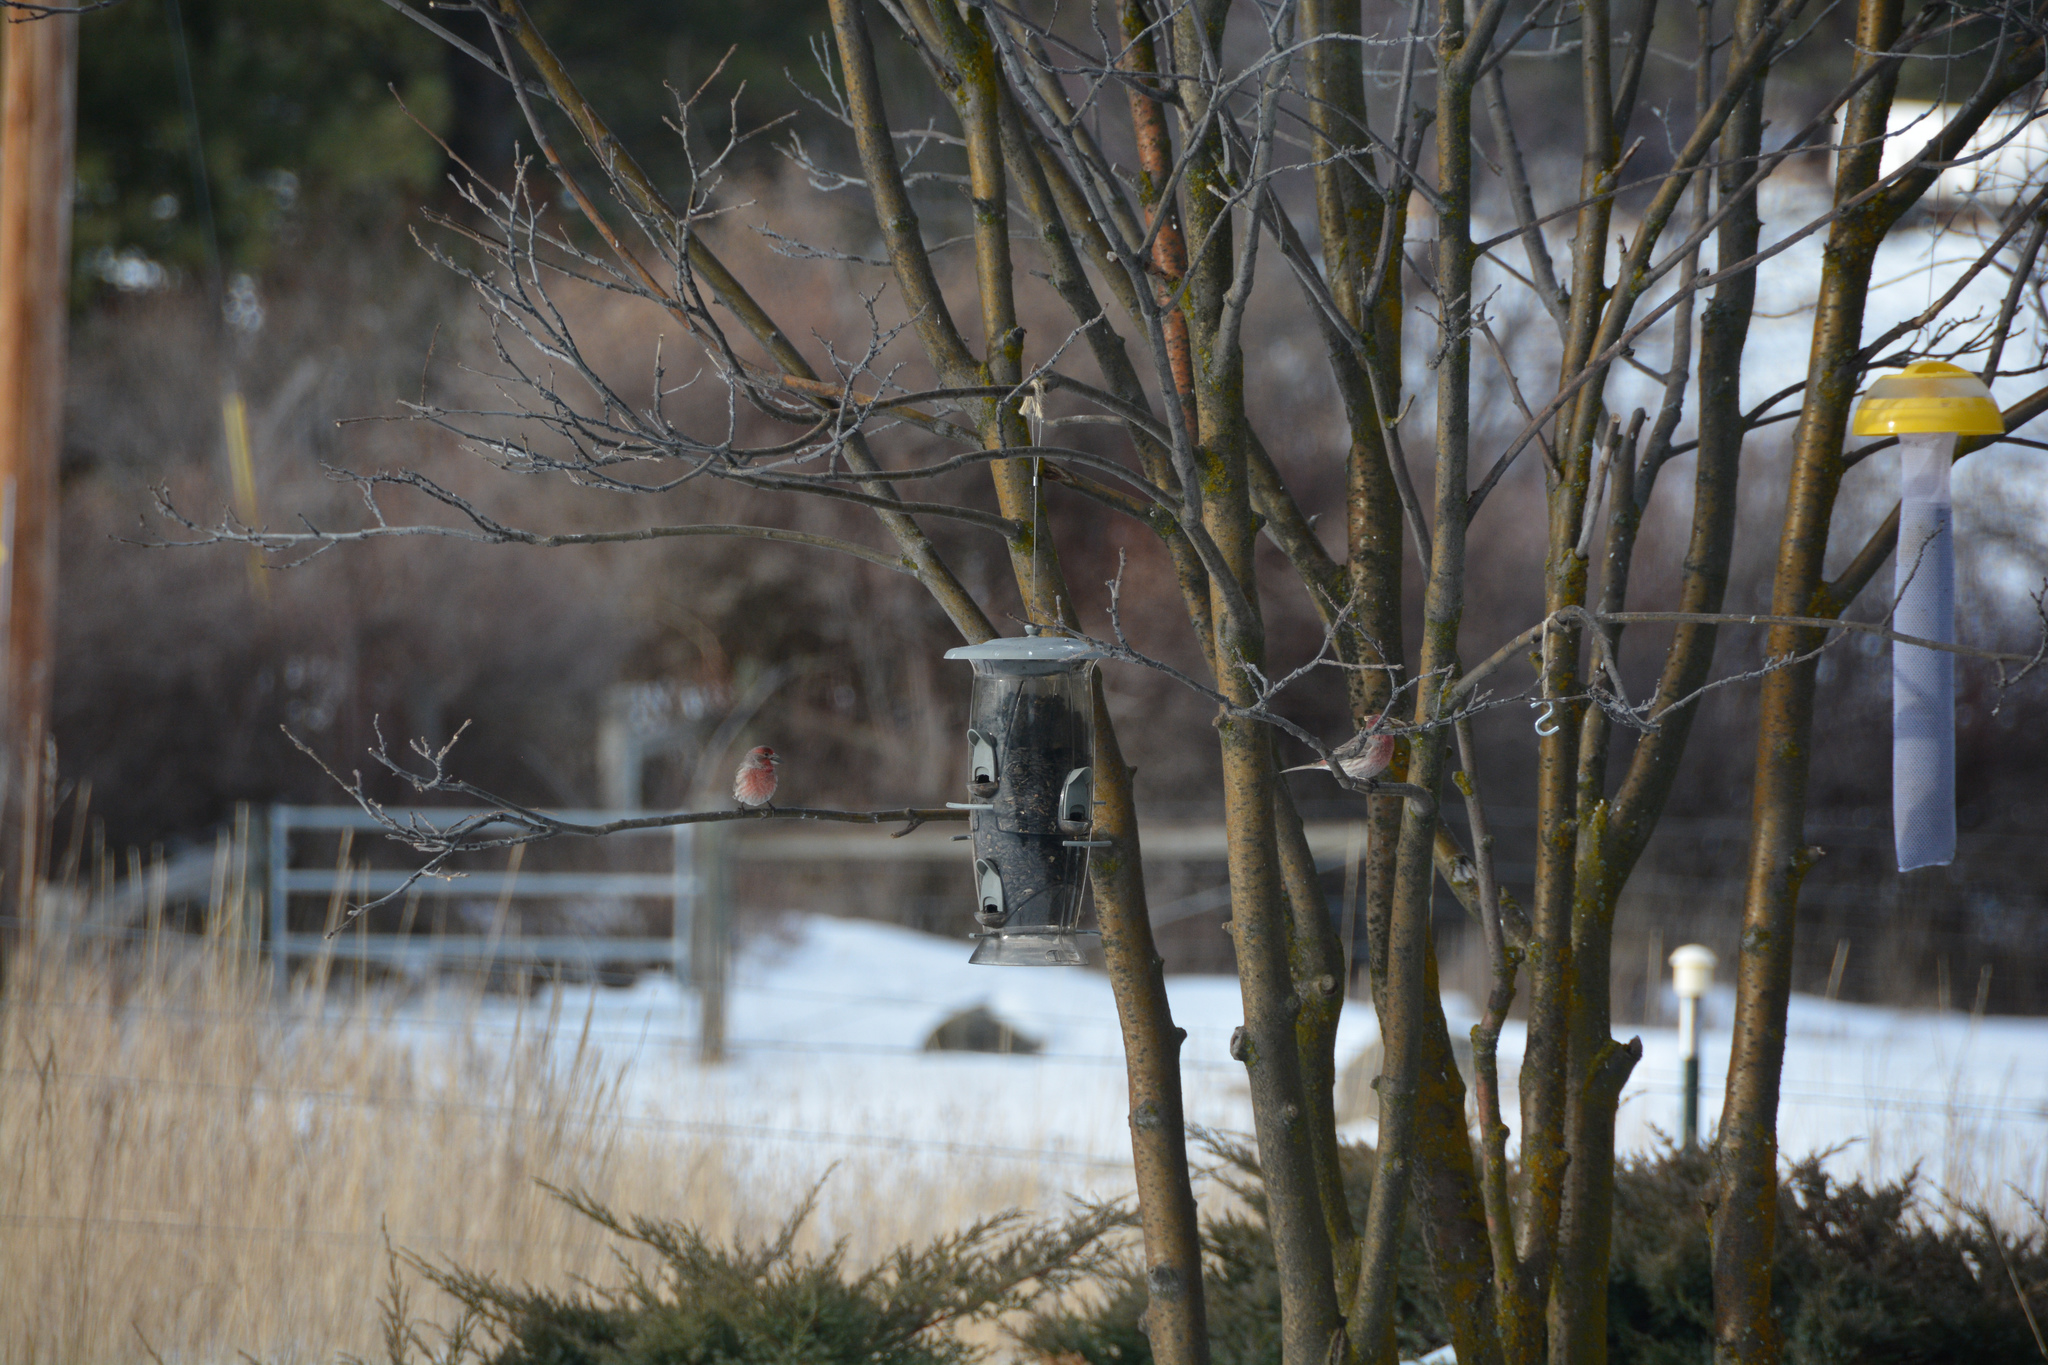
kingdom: Animalia
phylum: Chordata
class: Aves
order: Passeriformes
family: Fringillidae
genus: Haemorhous
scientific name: Haemorhous mexicanus
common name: House finch
